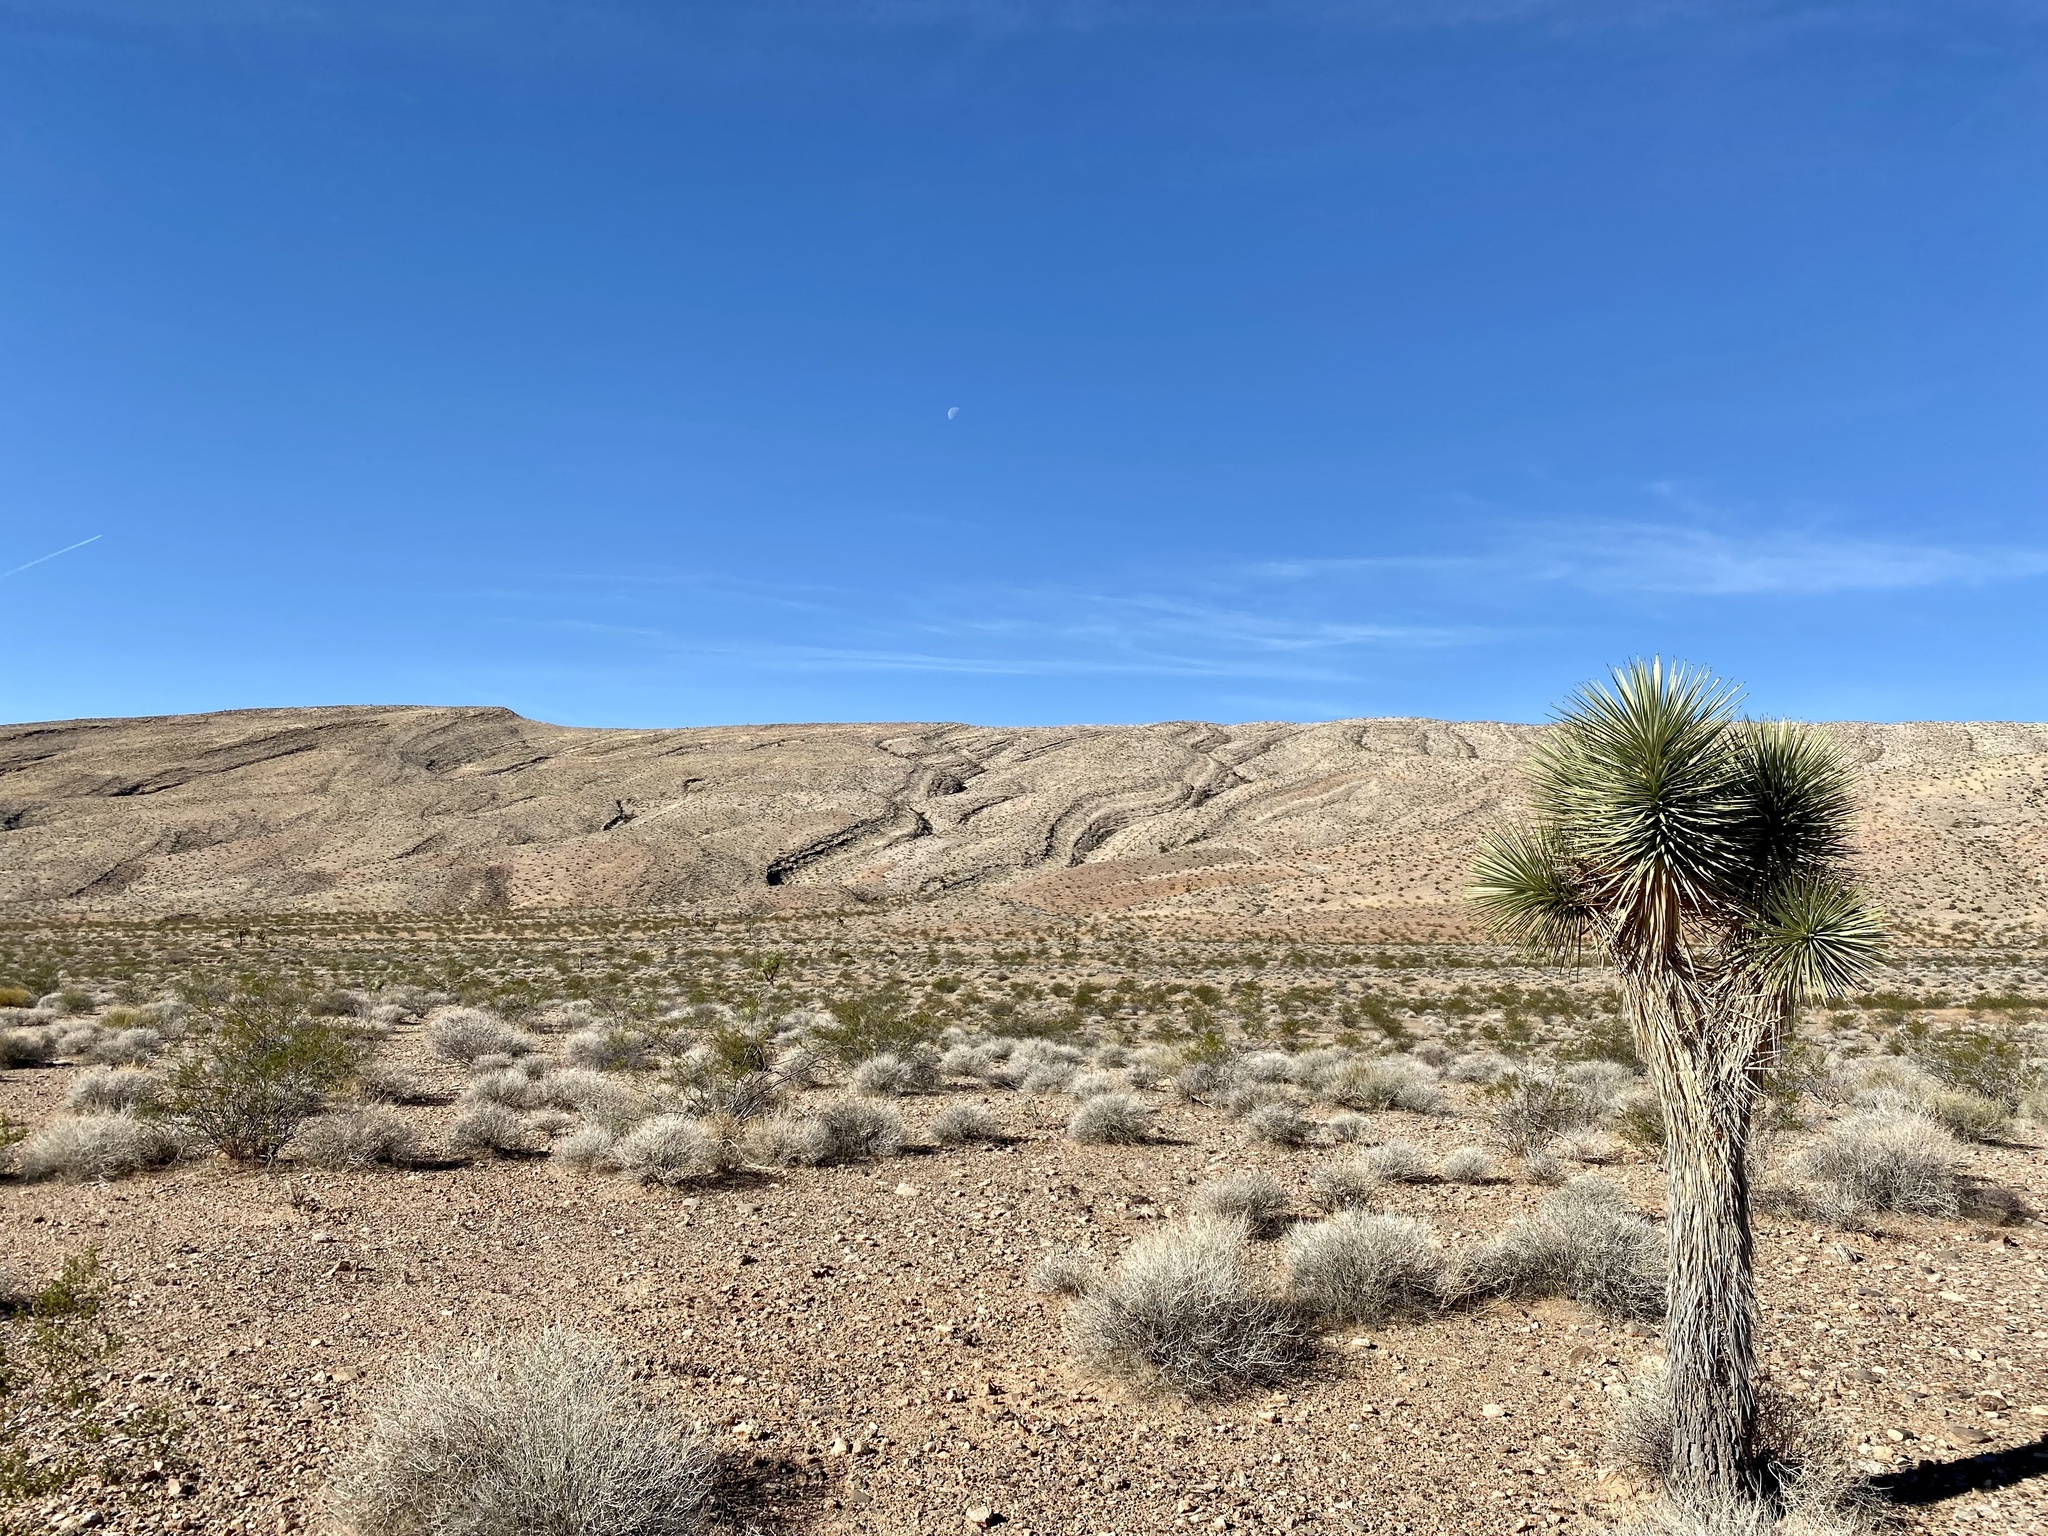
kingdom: Plantae
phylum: Tracheophyta
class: Liliopsida
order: Asparagales
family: Asparagaceae
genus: Yucca
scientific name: Yucca brevifolia
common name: Joshua tree
